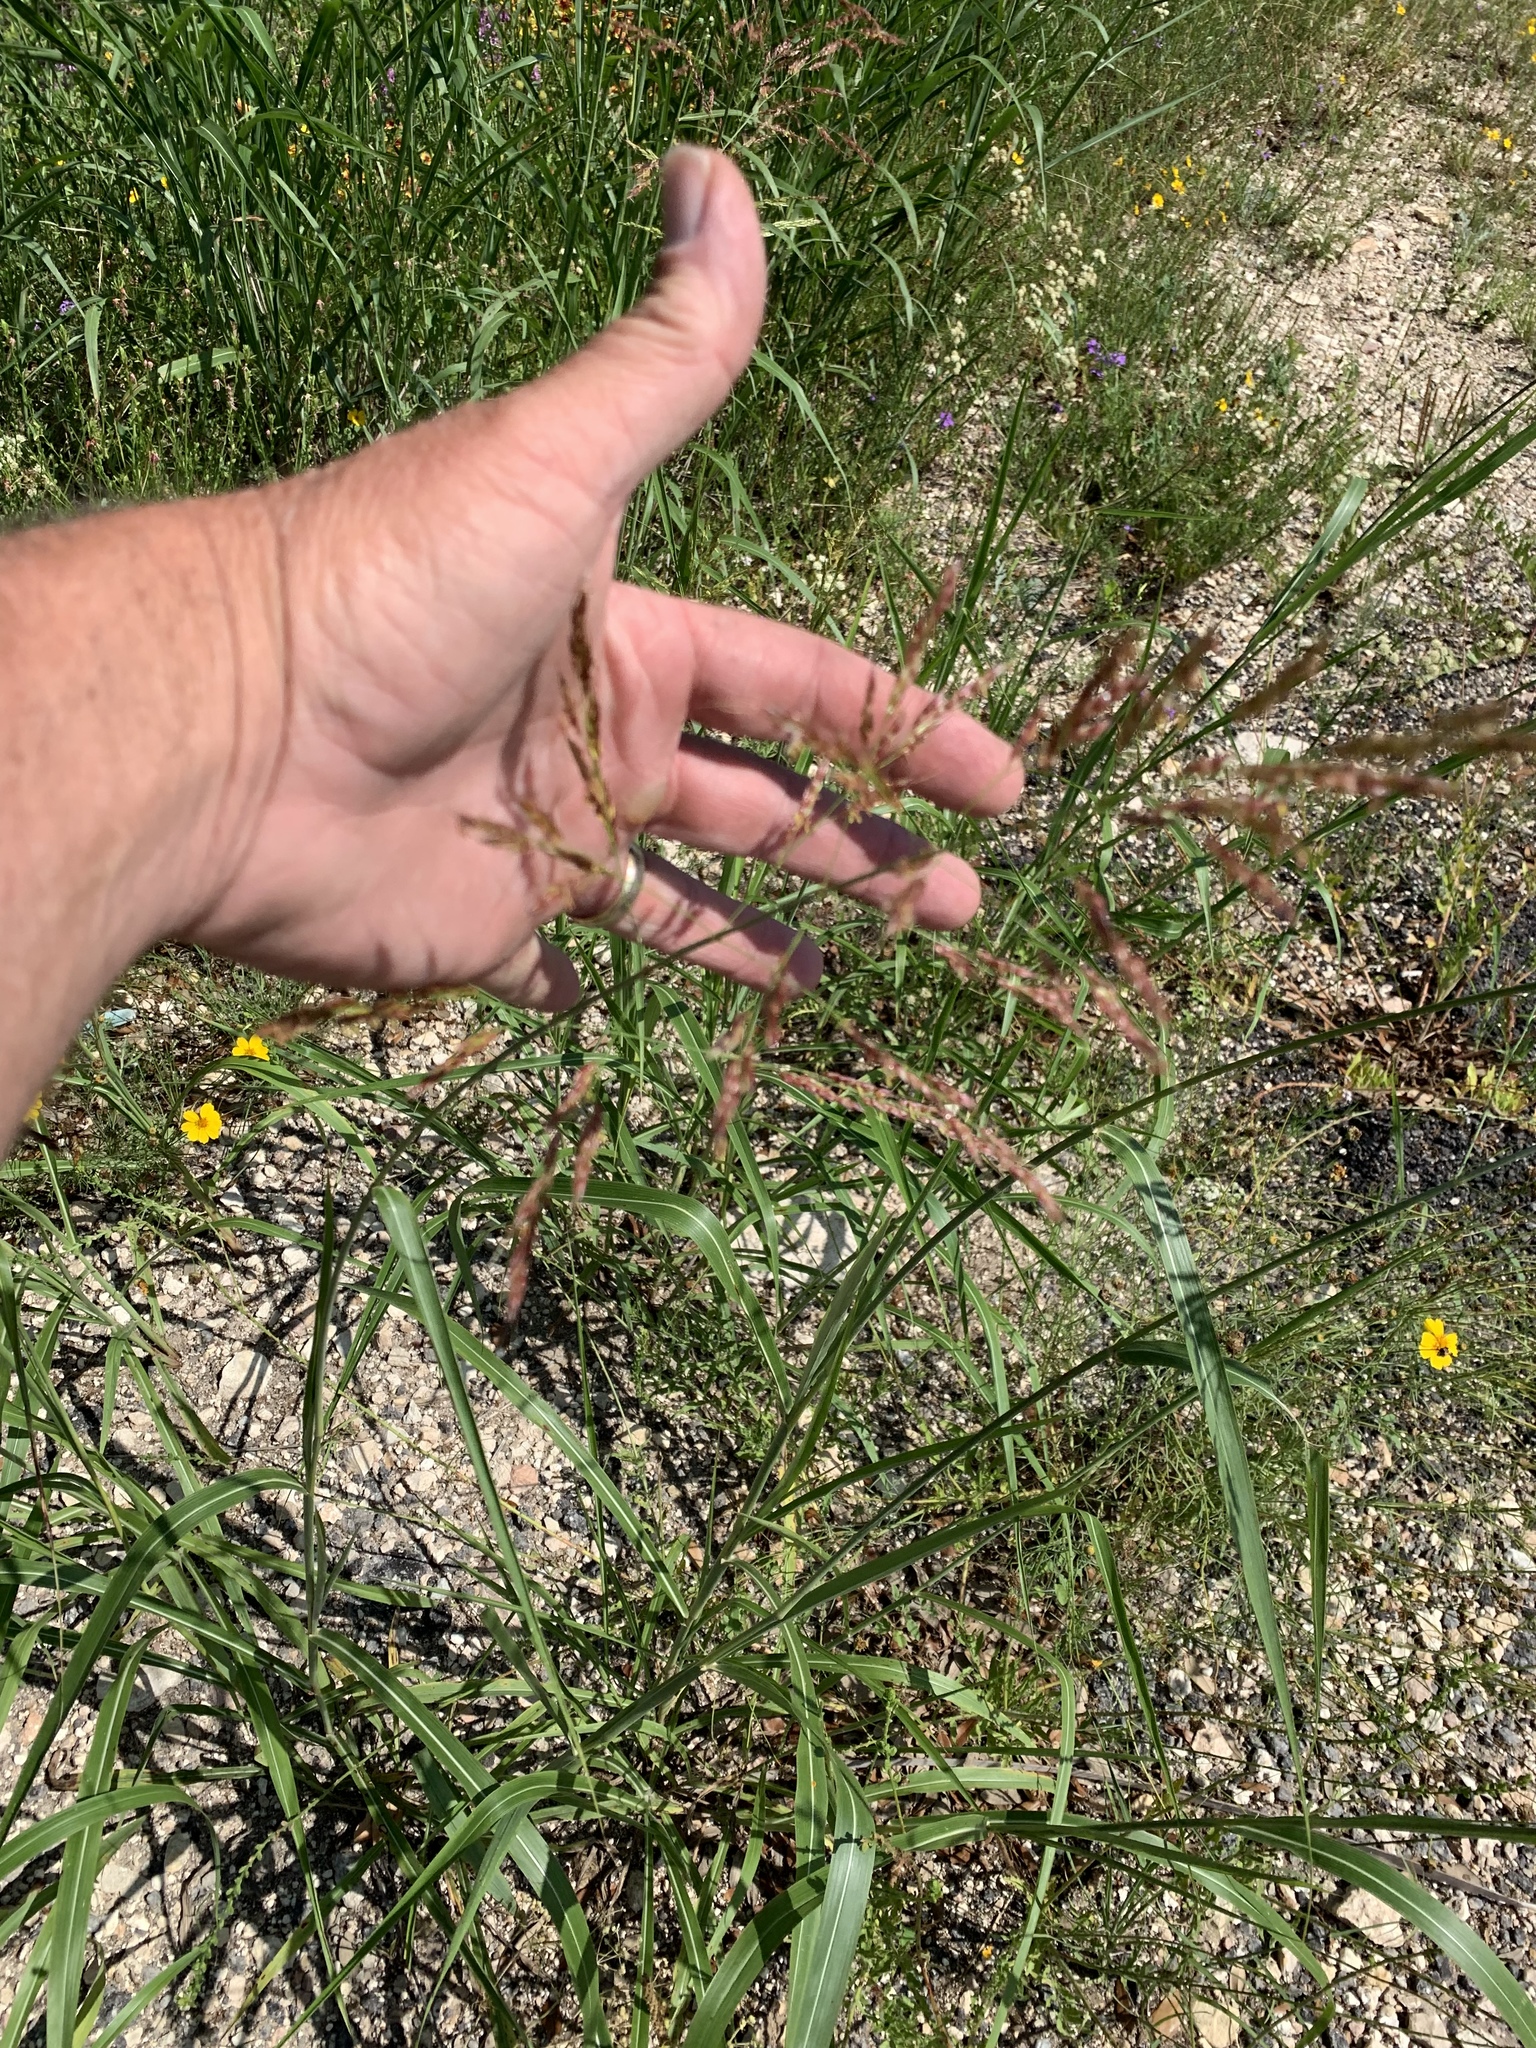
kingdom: Plantae
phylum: Tracheophyta
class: Liliopsida
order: Poales
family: Poaceae
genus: Sorghum
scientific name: Sorghum halepense
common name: Johnson-grass
